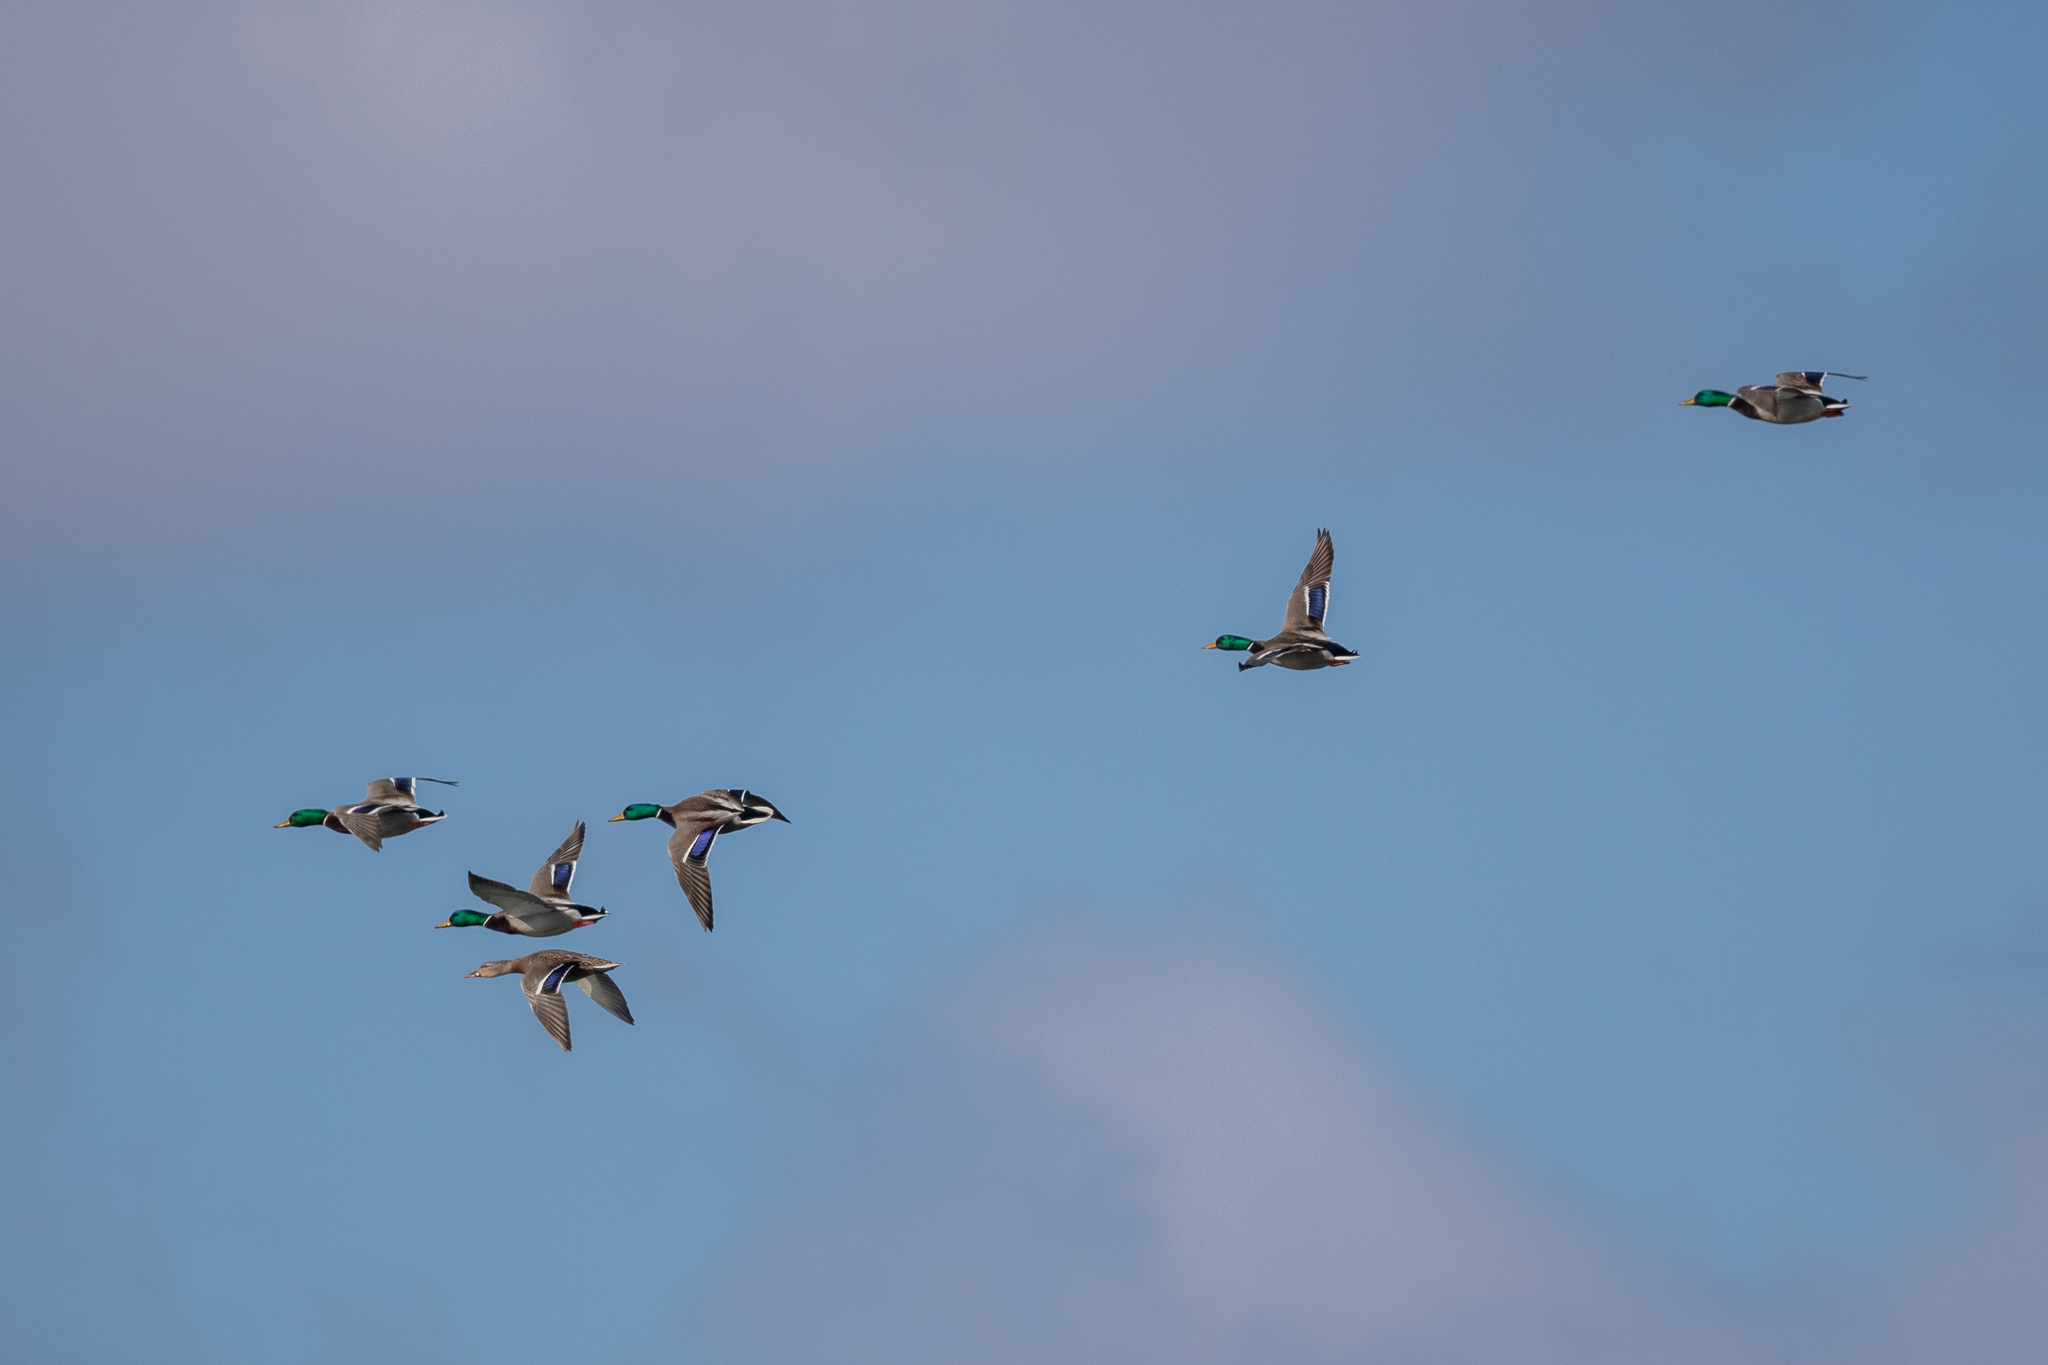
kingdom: Animalia
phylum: Chordata
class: Aves
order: Anseriformes
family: Anatidae
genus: Anas
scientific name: Anas platyrhynchos
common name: Mallard
